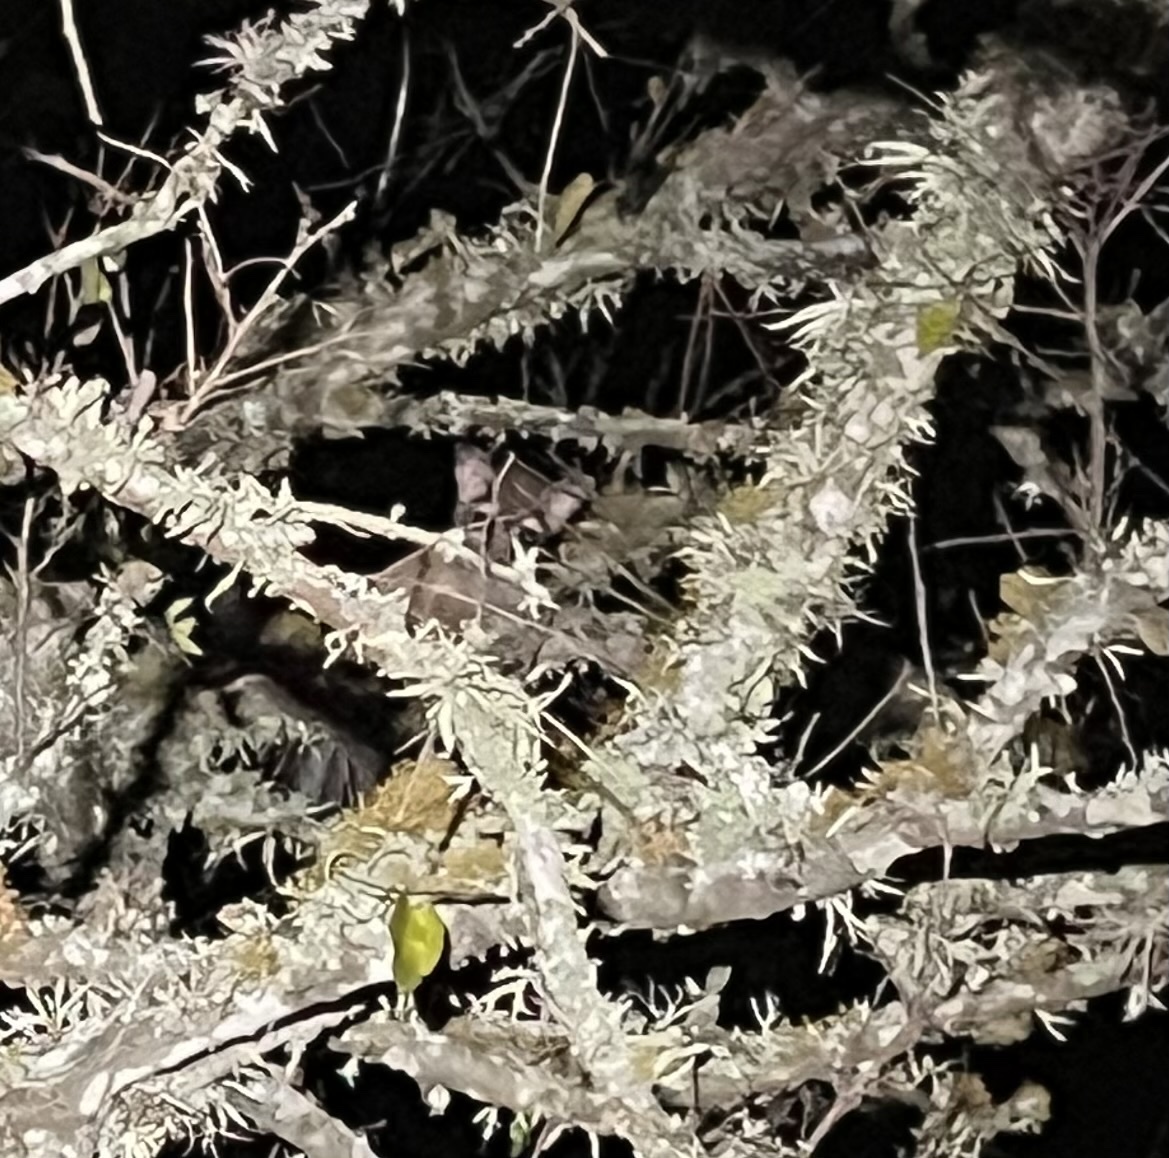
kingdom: Animalia
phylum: Chordata
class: Mammalia
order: Carnivora
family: Procyonidae
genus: Bassariscus
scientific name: Bassariscus astutus
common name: Ringtail
